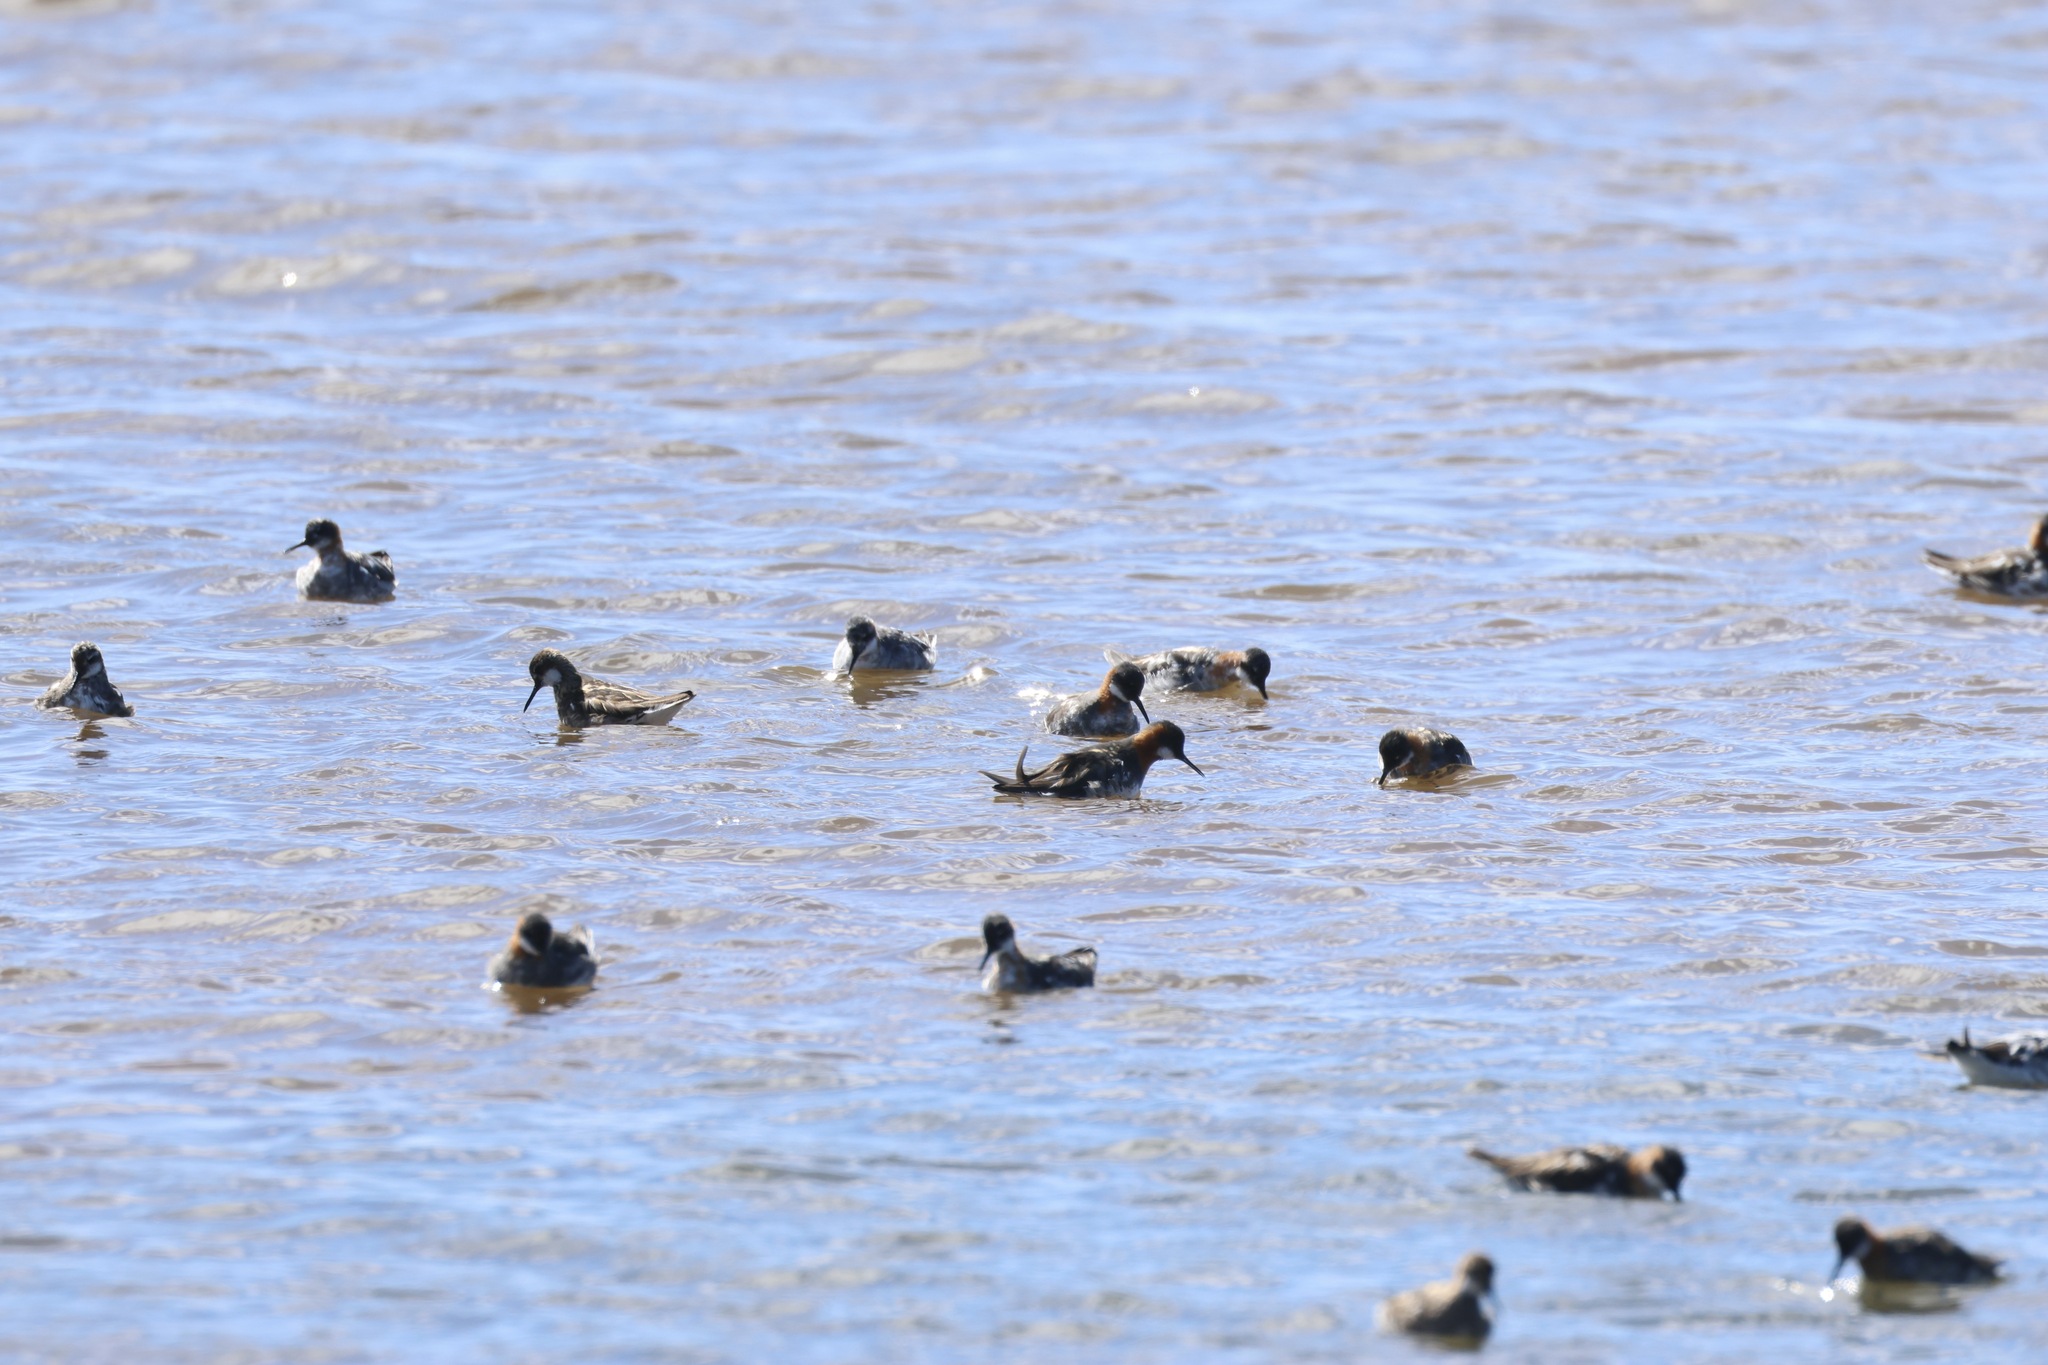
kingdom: Animalia
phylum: Chordata
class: Aves
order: Charadriiformes
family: Scolopacidae
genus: Phalaropus
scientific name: Phalaropus lobatus
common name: Red-necked phalarope
